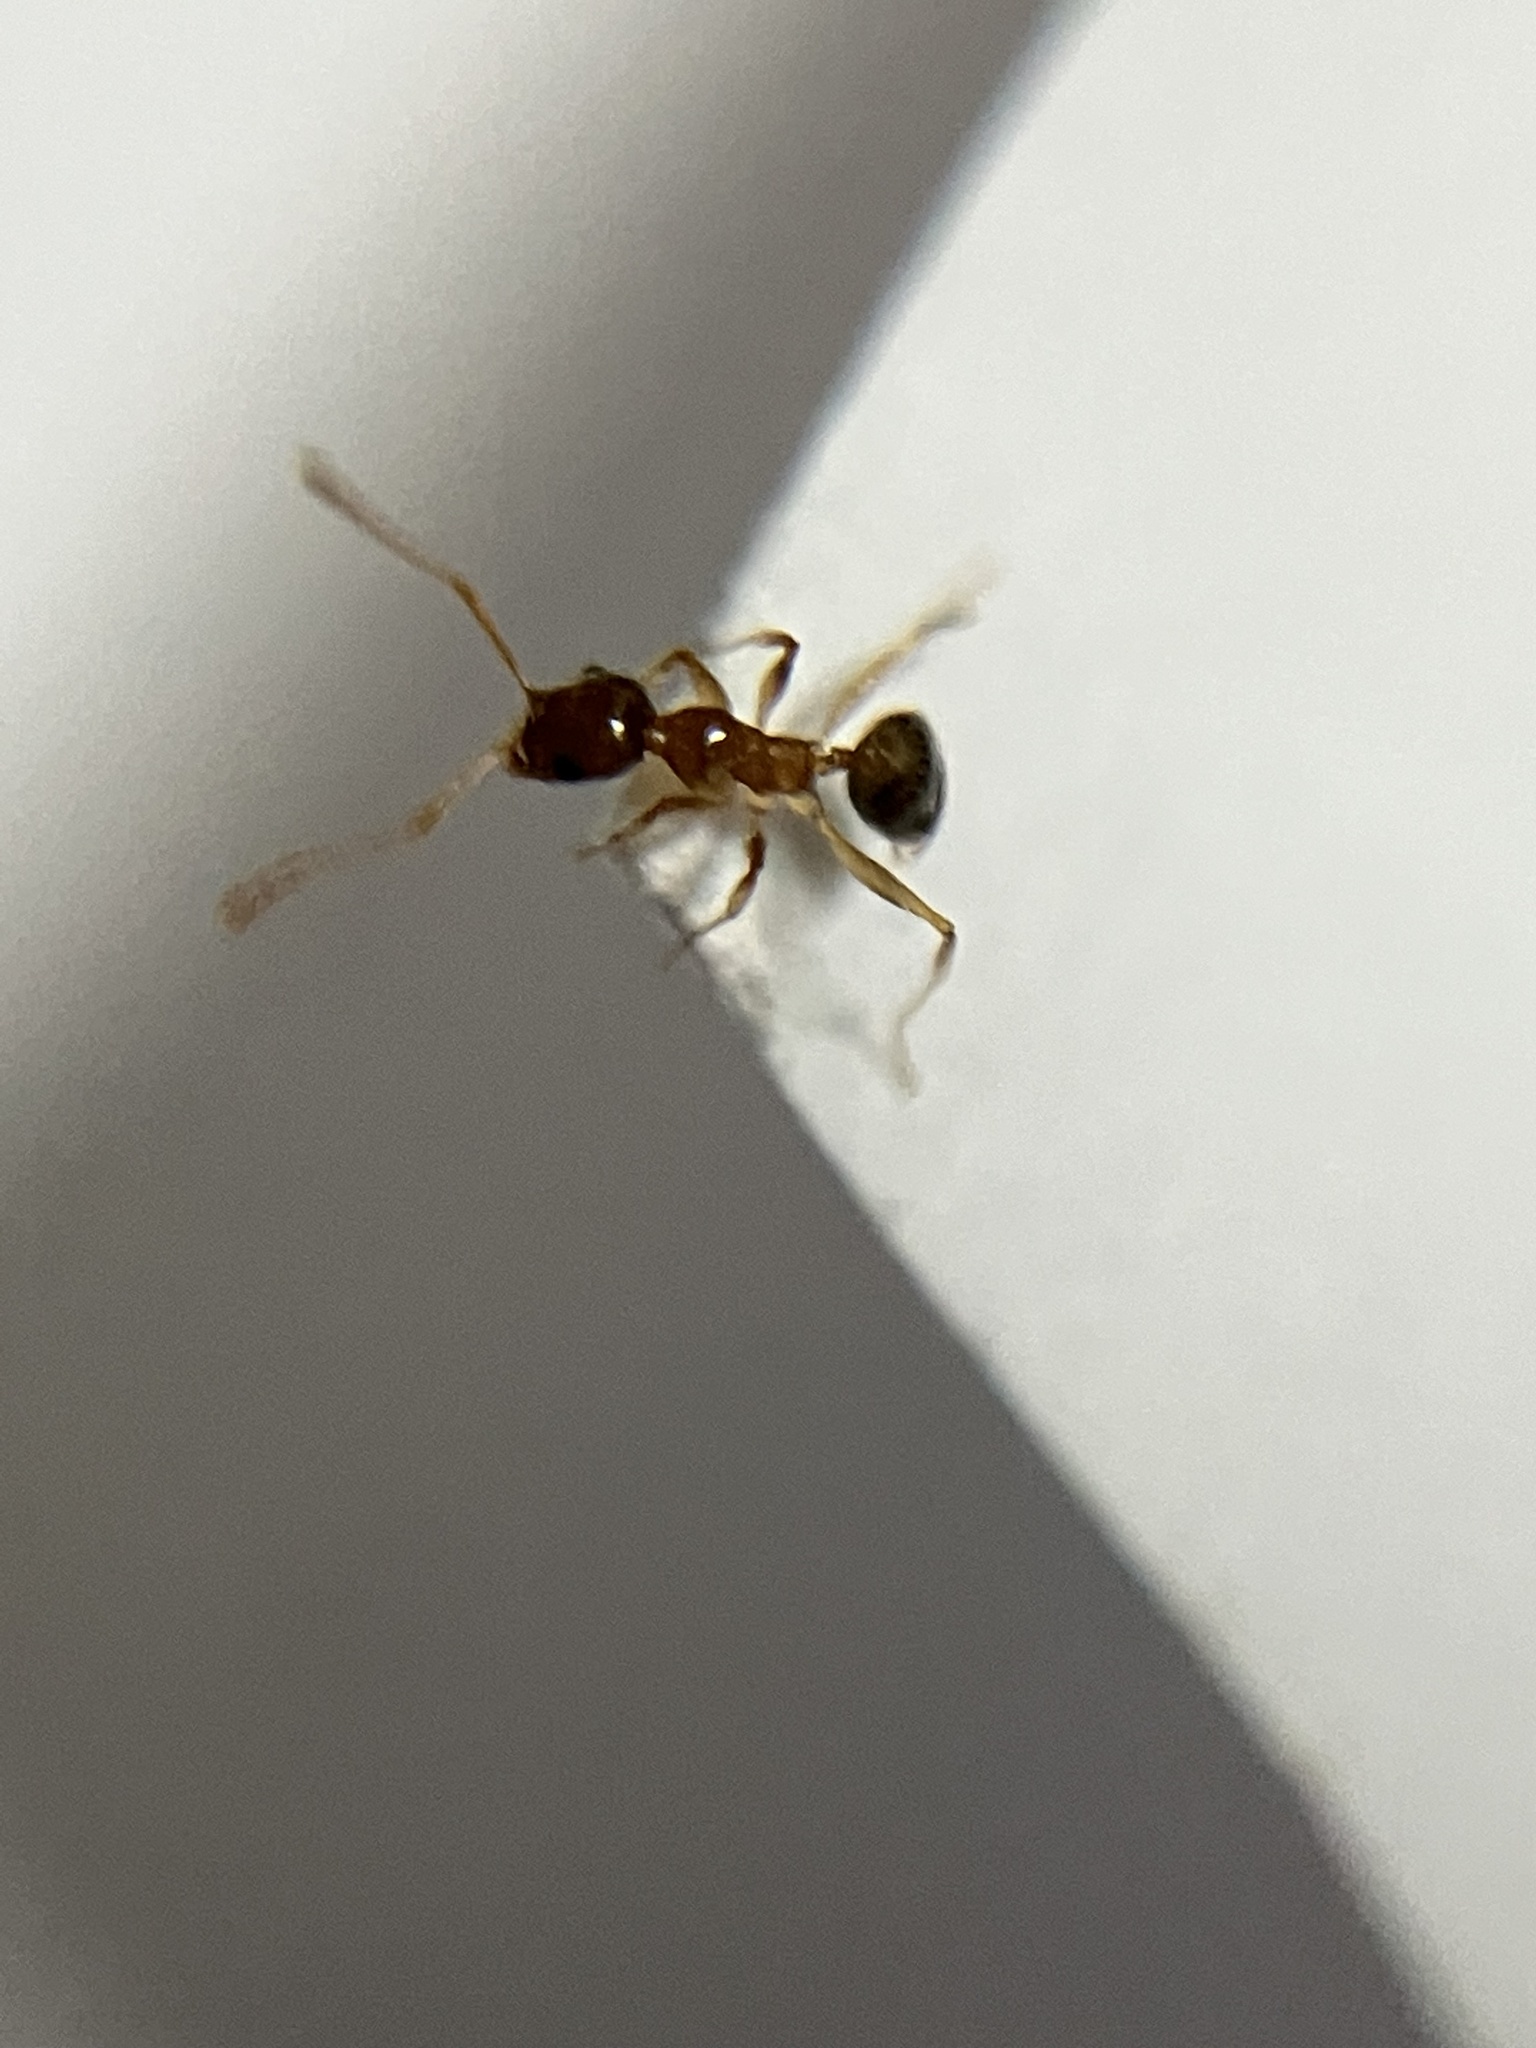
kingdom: Animalia
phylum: Arthropoda
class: Insecta
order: Hymenoptera
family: Formicidae
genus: Pheidole
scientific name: Pheidole indica
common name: Big-headed ant
